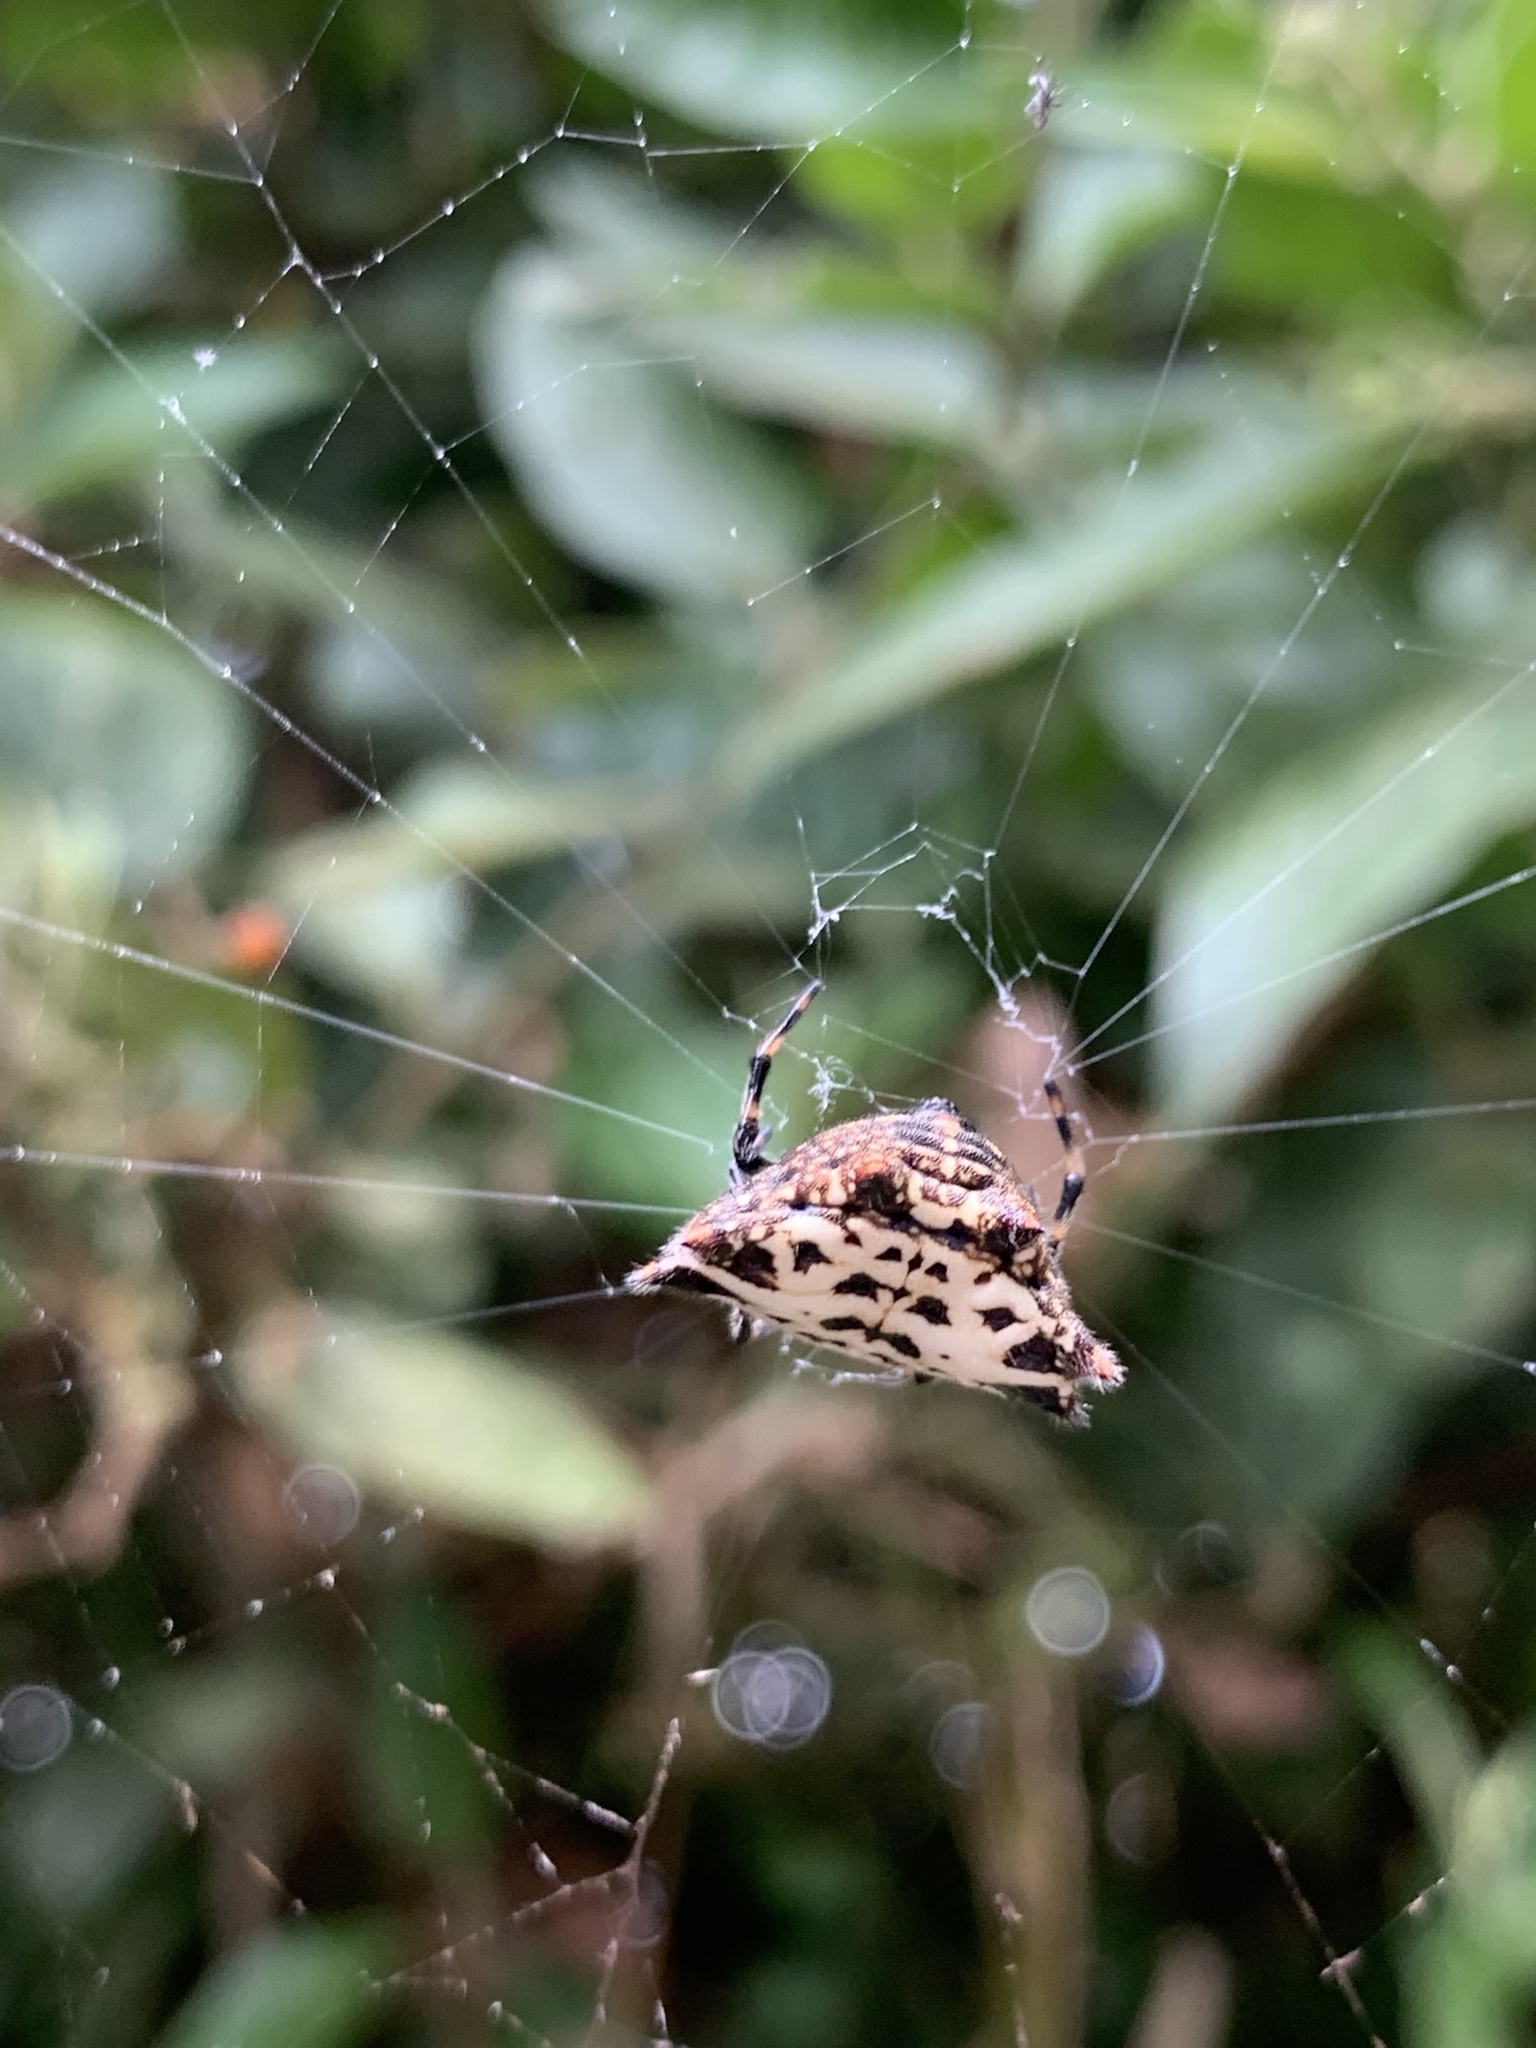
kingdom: Animalia
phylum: Arthropoda
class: Arachnida
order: Araneae
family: Araneidae
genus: Gasteracantha
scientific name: Gasteracantha cancriformis
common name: Orb weavers
